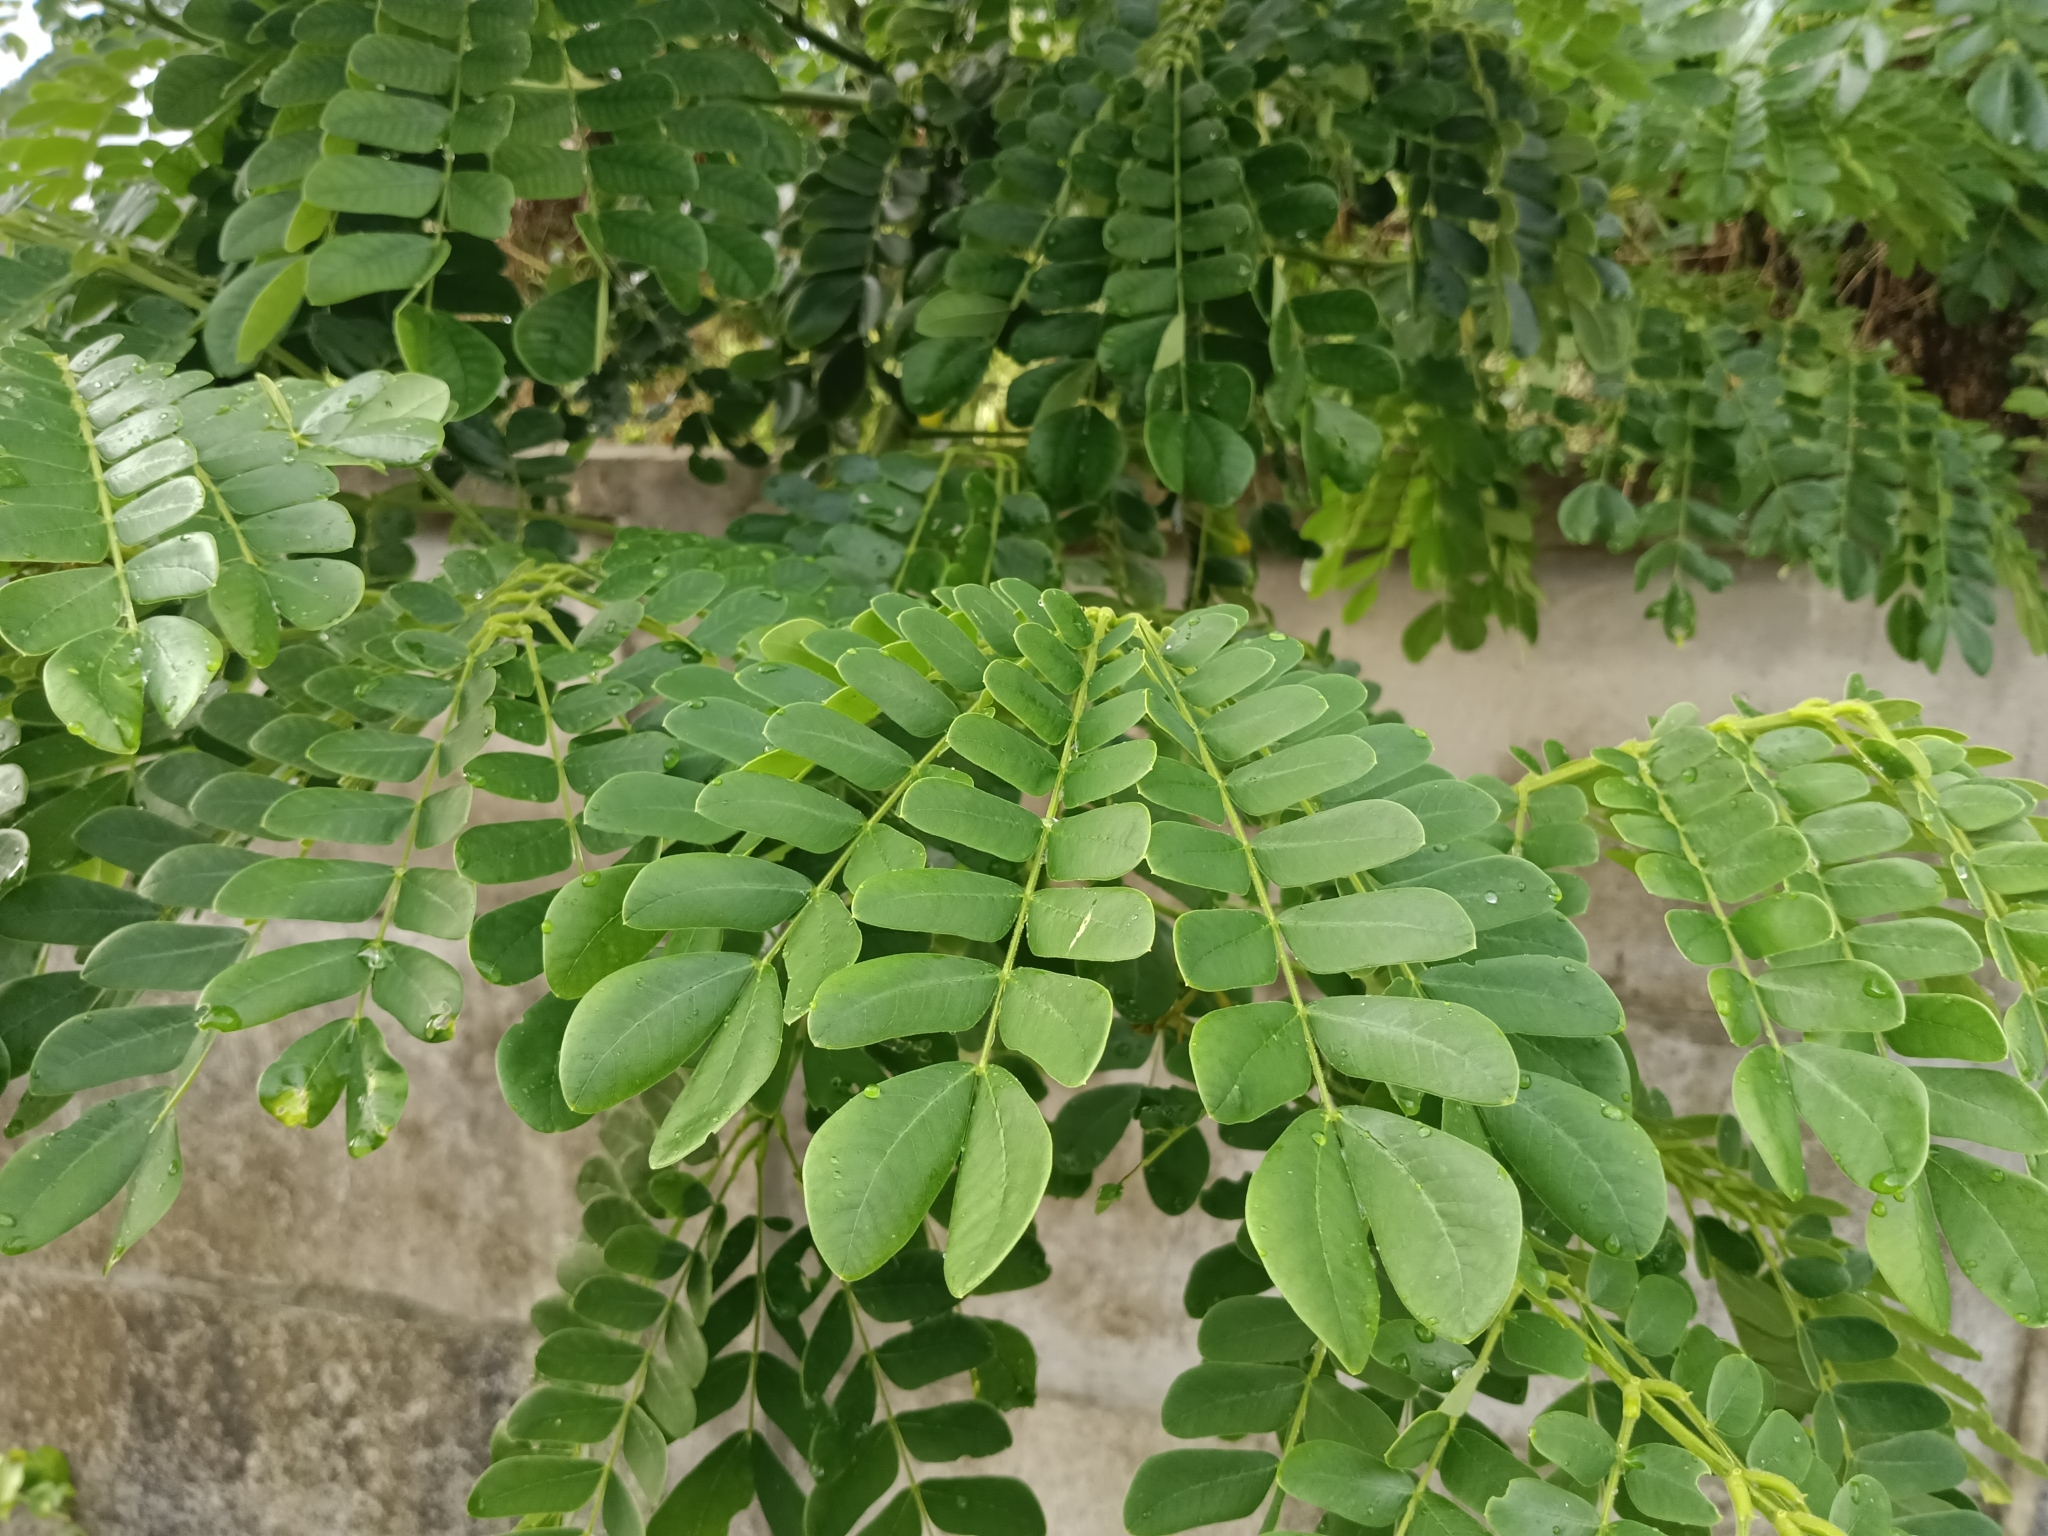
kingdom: Plantae
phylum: Tracheophyta
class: Magnoliopsida
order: Fabales
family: Fabaceae
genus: Samanea
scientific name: Samanea saman
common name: Raintree
